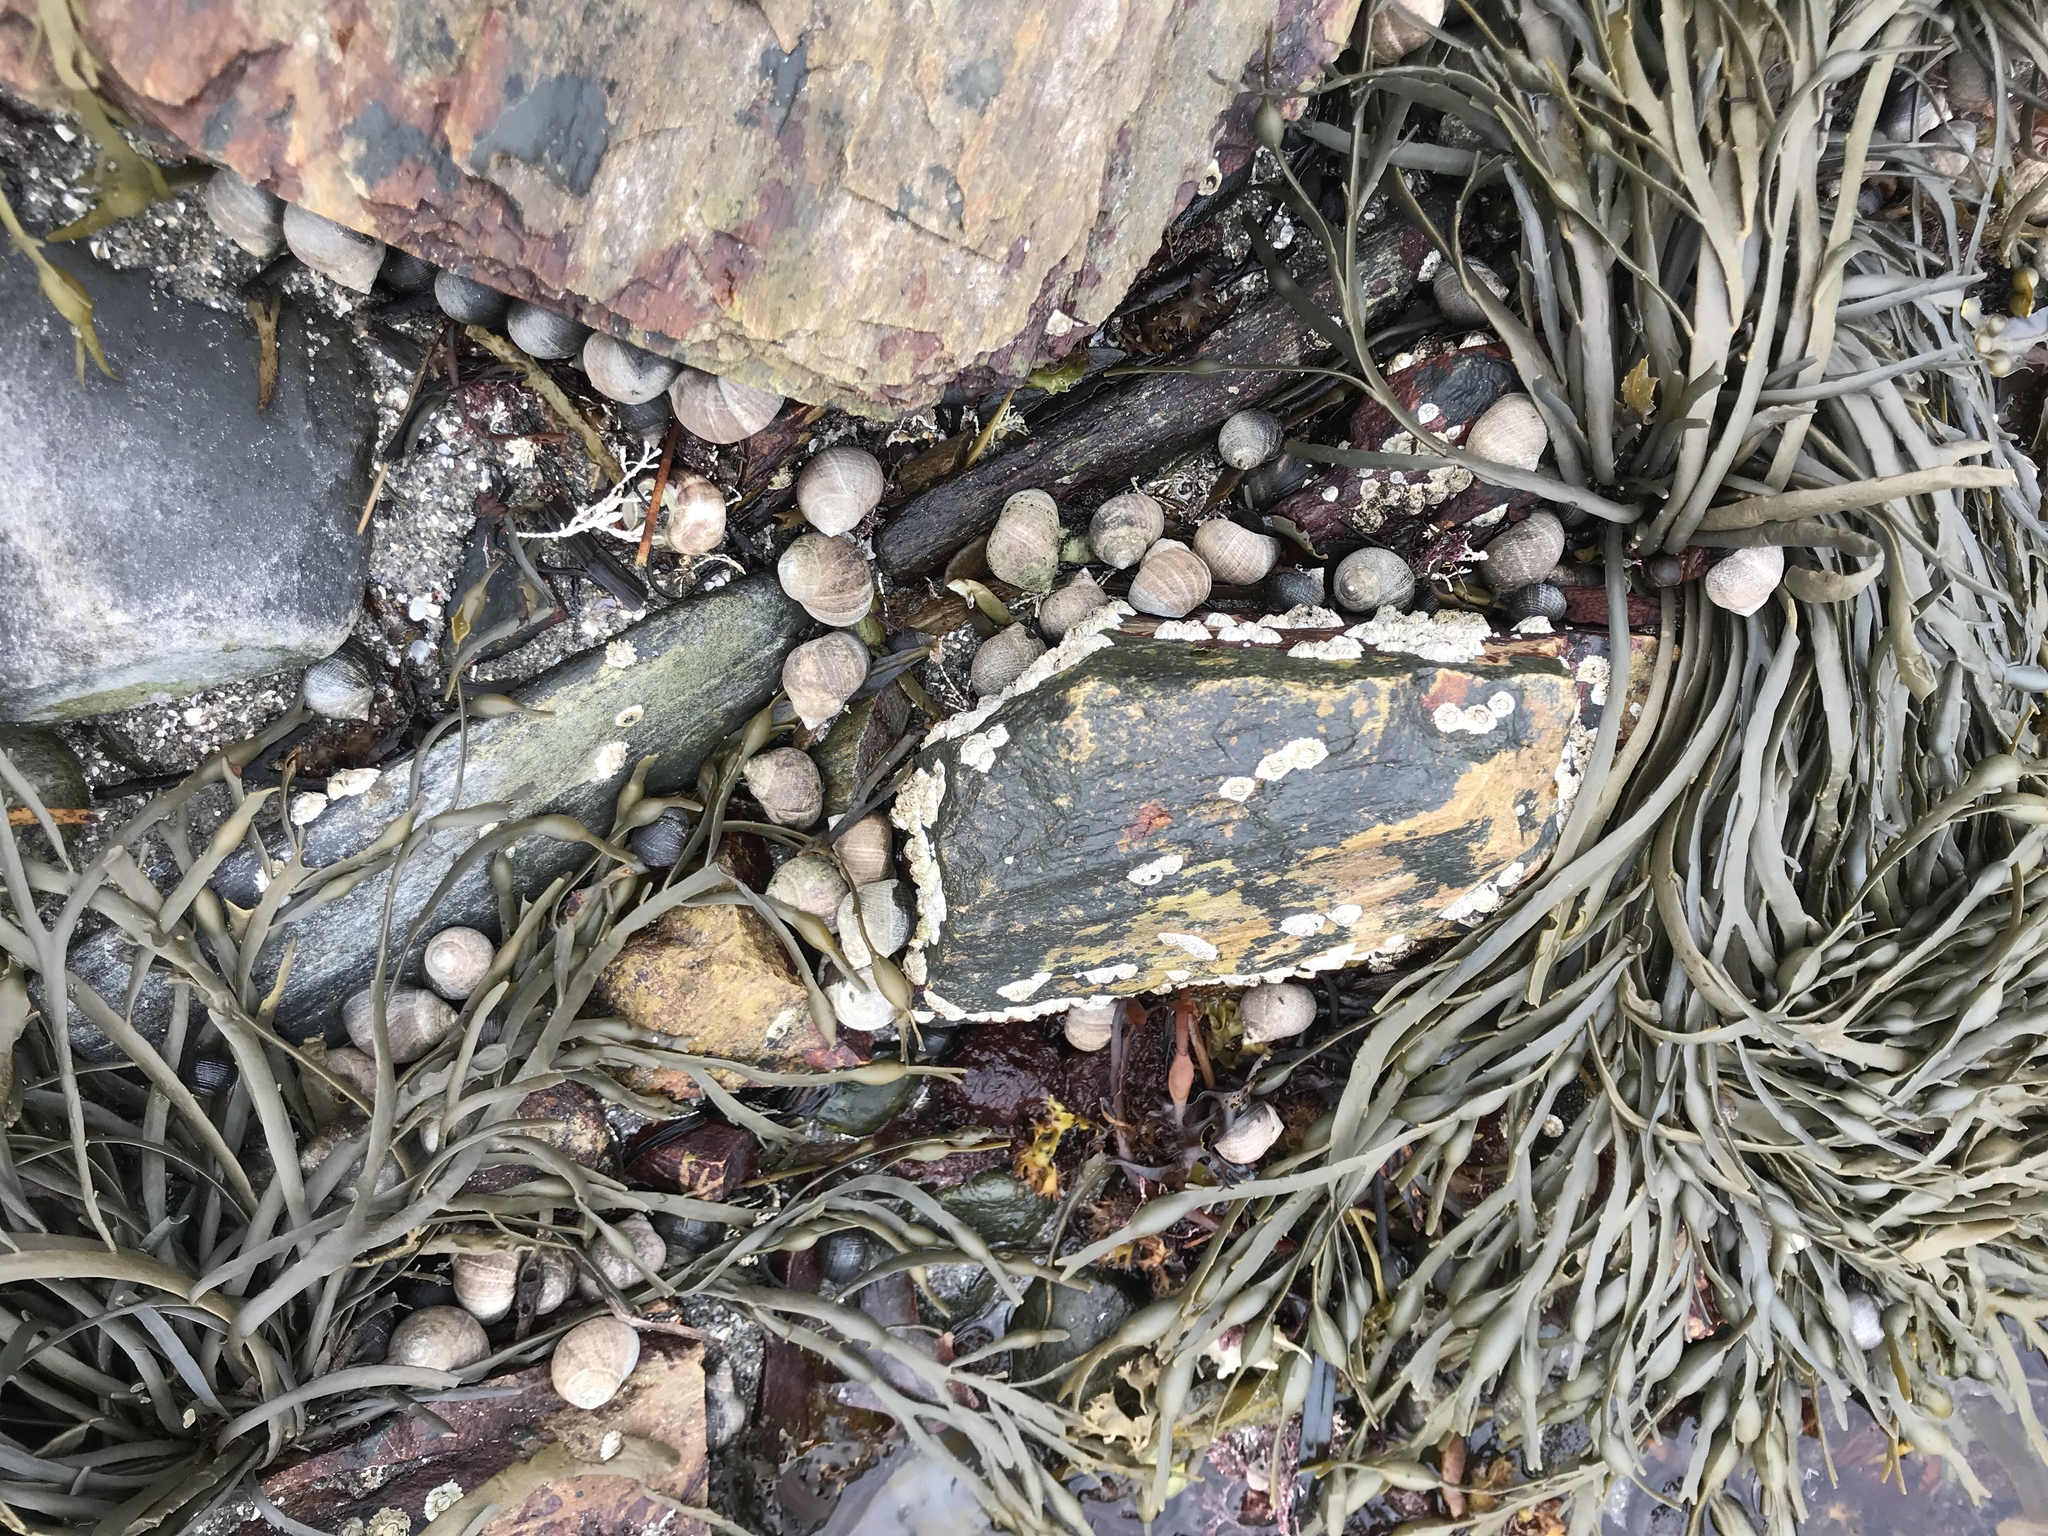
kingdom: Animalia
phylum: Mollusca
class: Gastropoda
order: Littorinimorpha
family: Littorinidae
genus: Littorina
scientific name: Littorina littorea
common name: Common periwinkle
